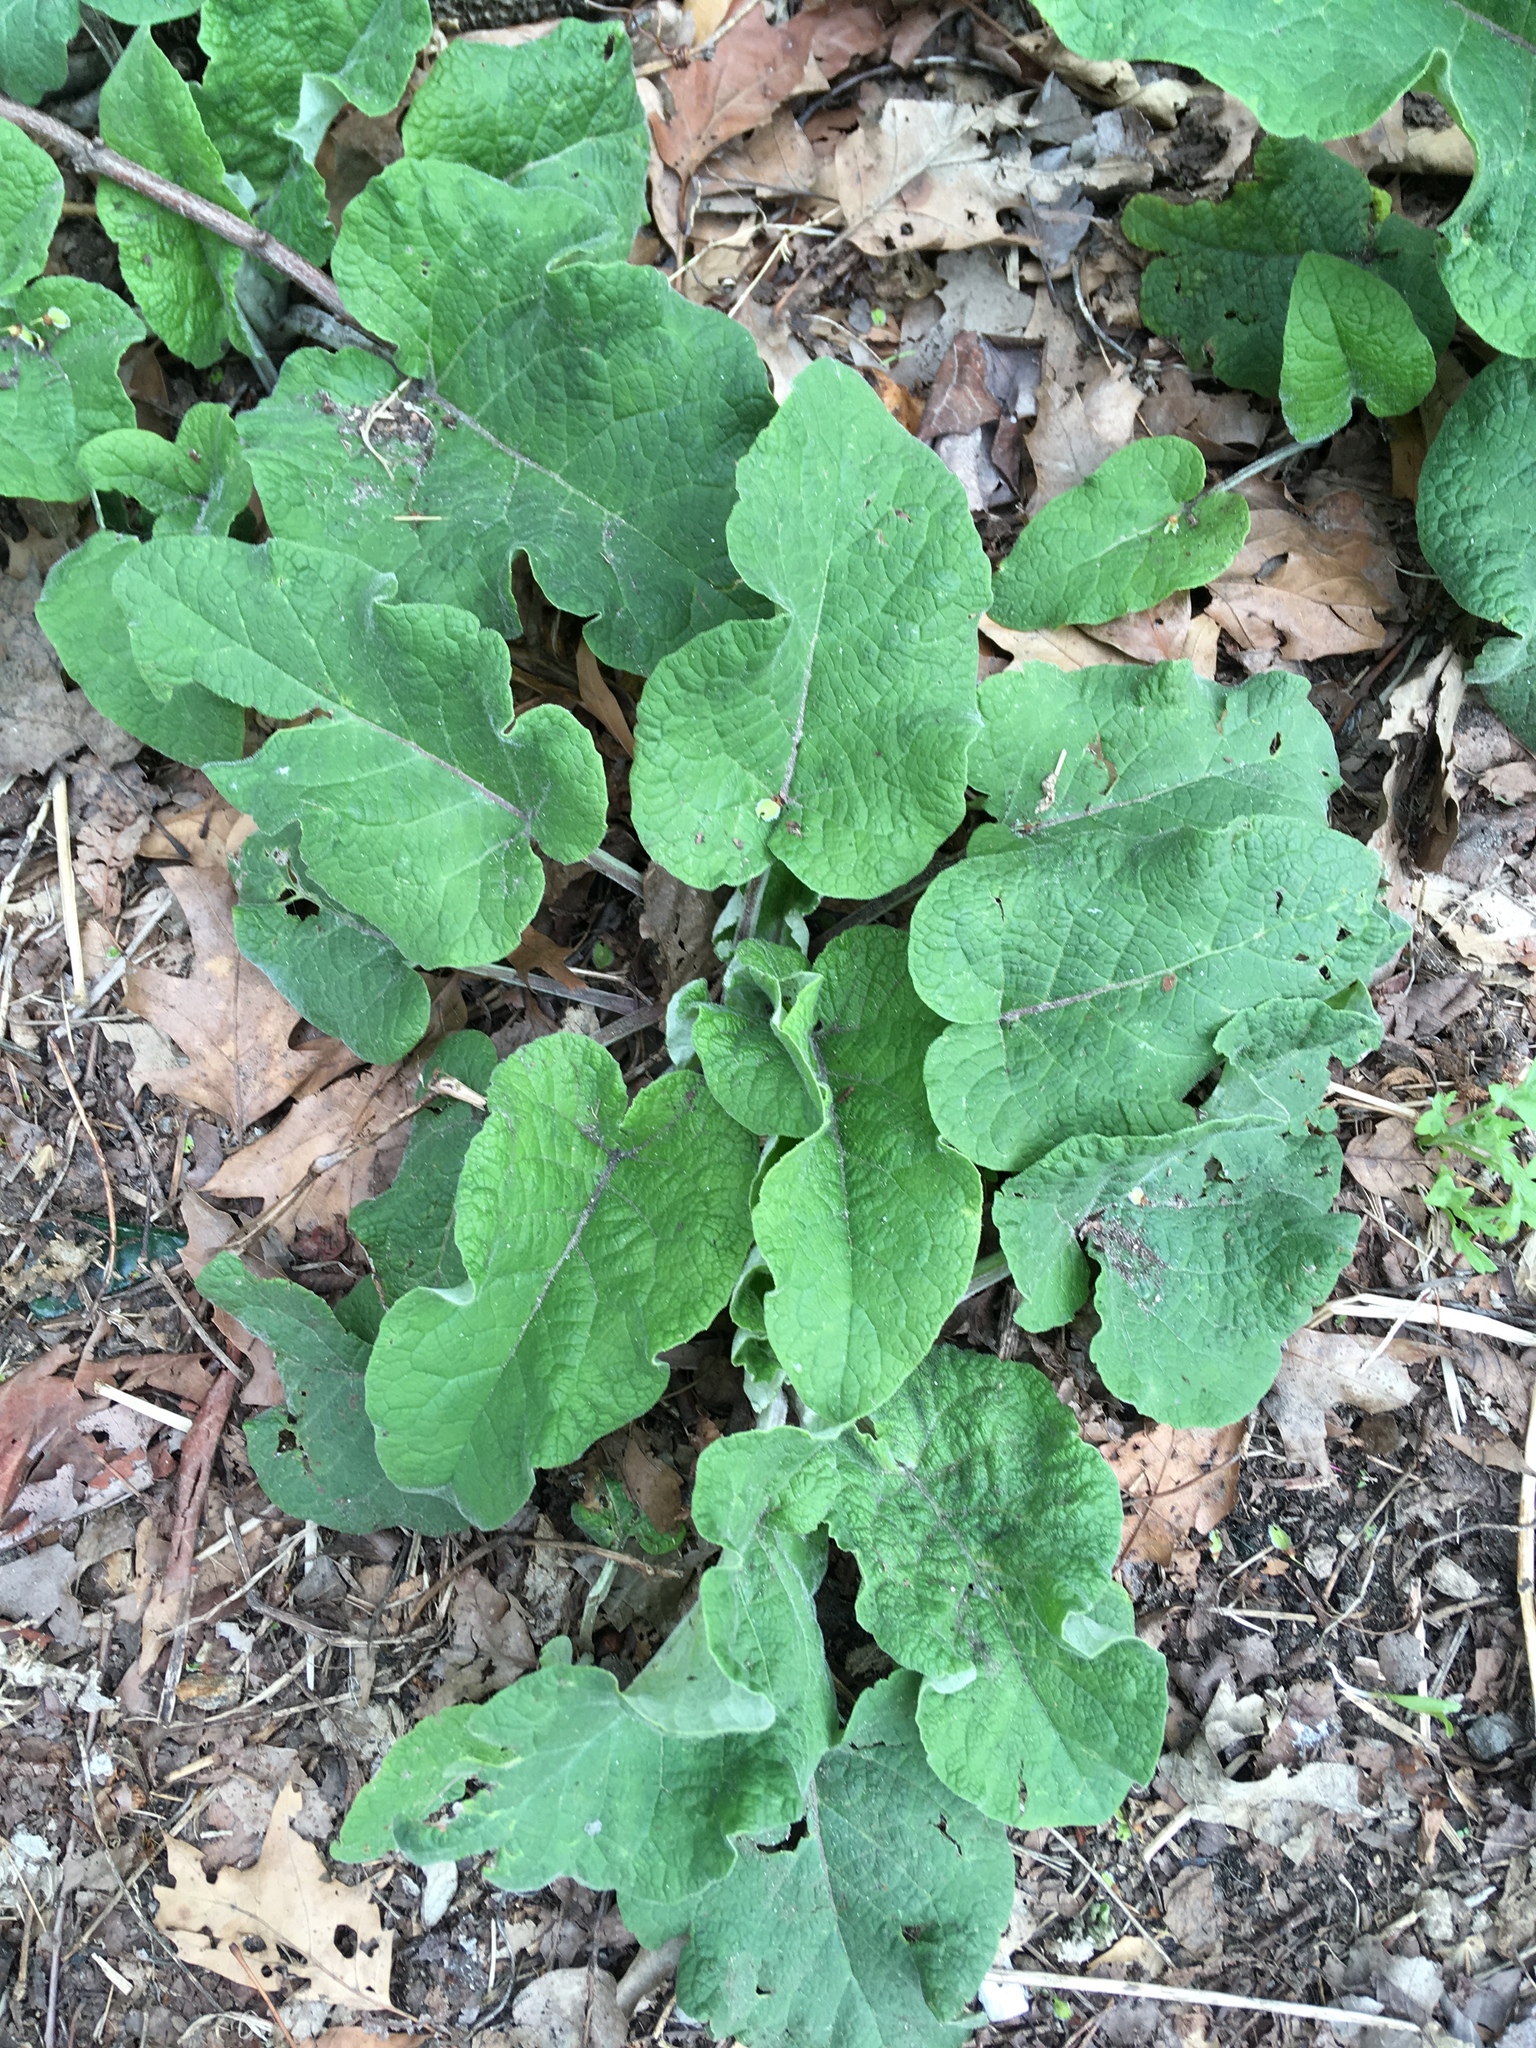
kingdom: Plantae
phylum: Tracheophyta
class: Magnoliopsida
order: Asterales
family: Asteraceae
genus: Arctium
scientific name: Arctium
